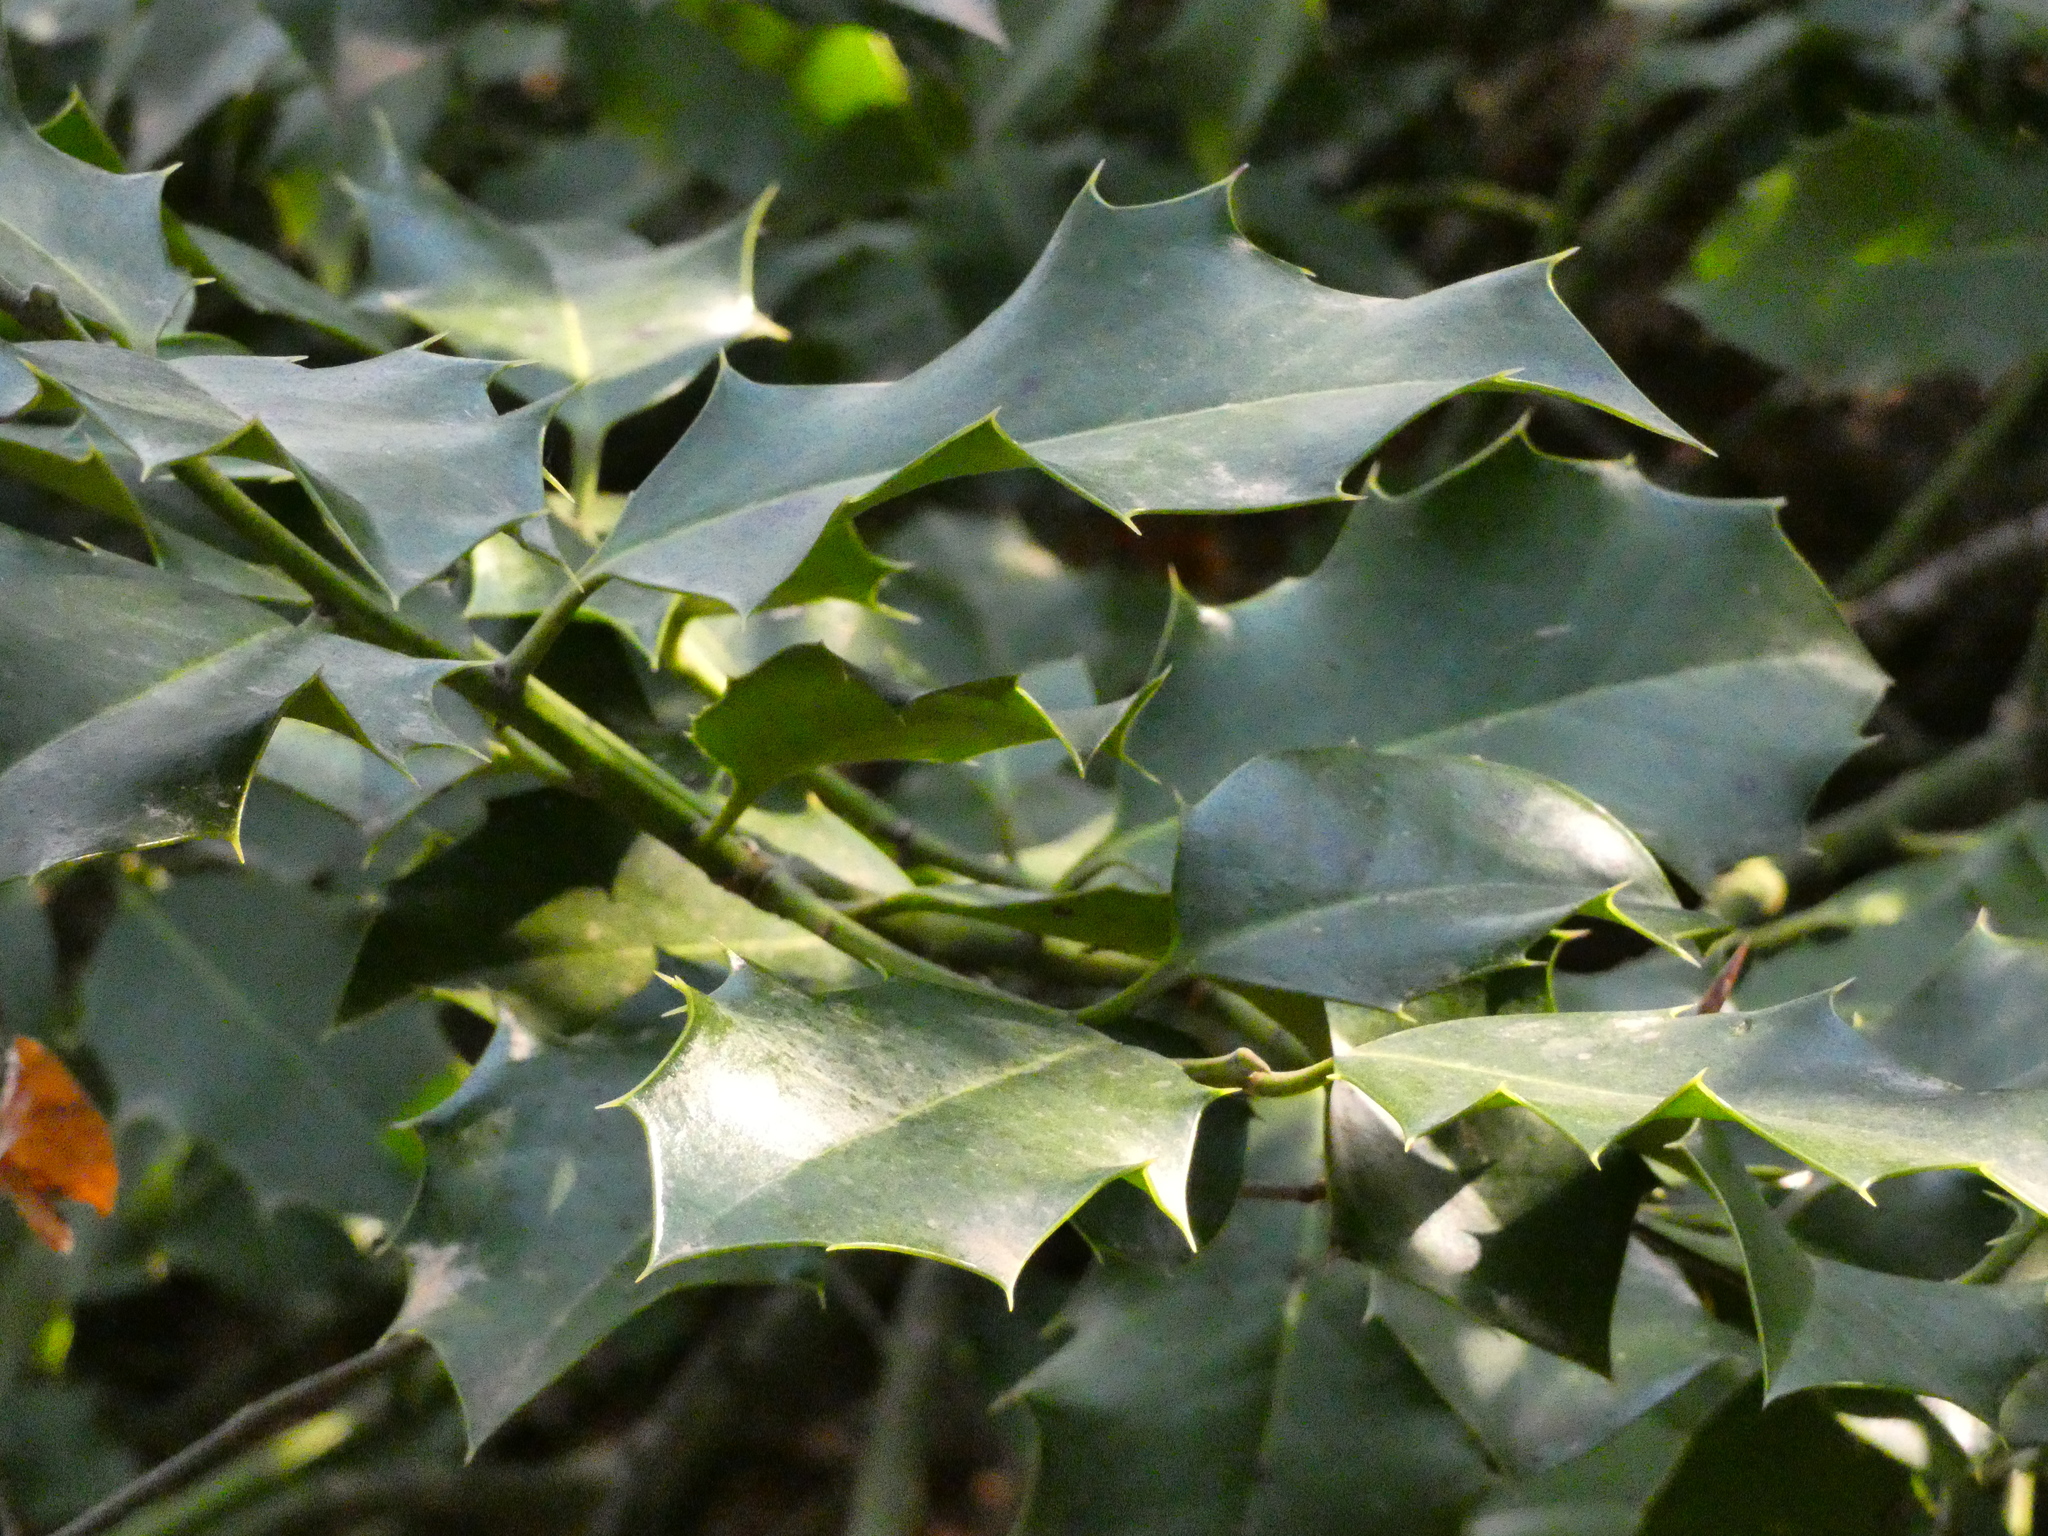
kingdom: Plantae
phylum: Tracheophyta
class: Magnoliopsida
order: Aquifoliales
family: Aquifoliaceae
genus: Ilex
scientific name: Ilex aquifolium
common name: English holly
